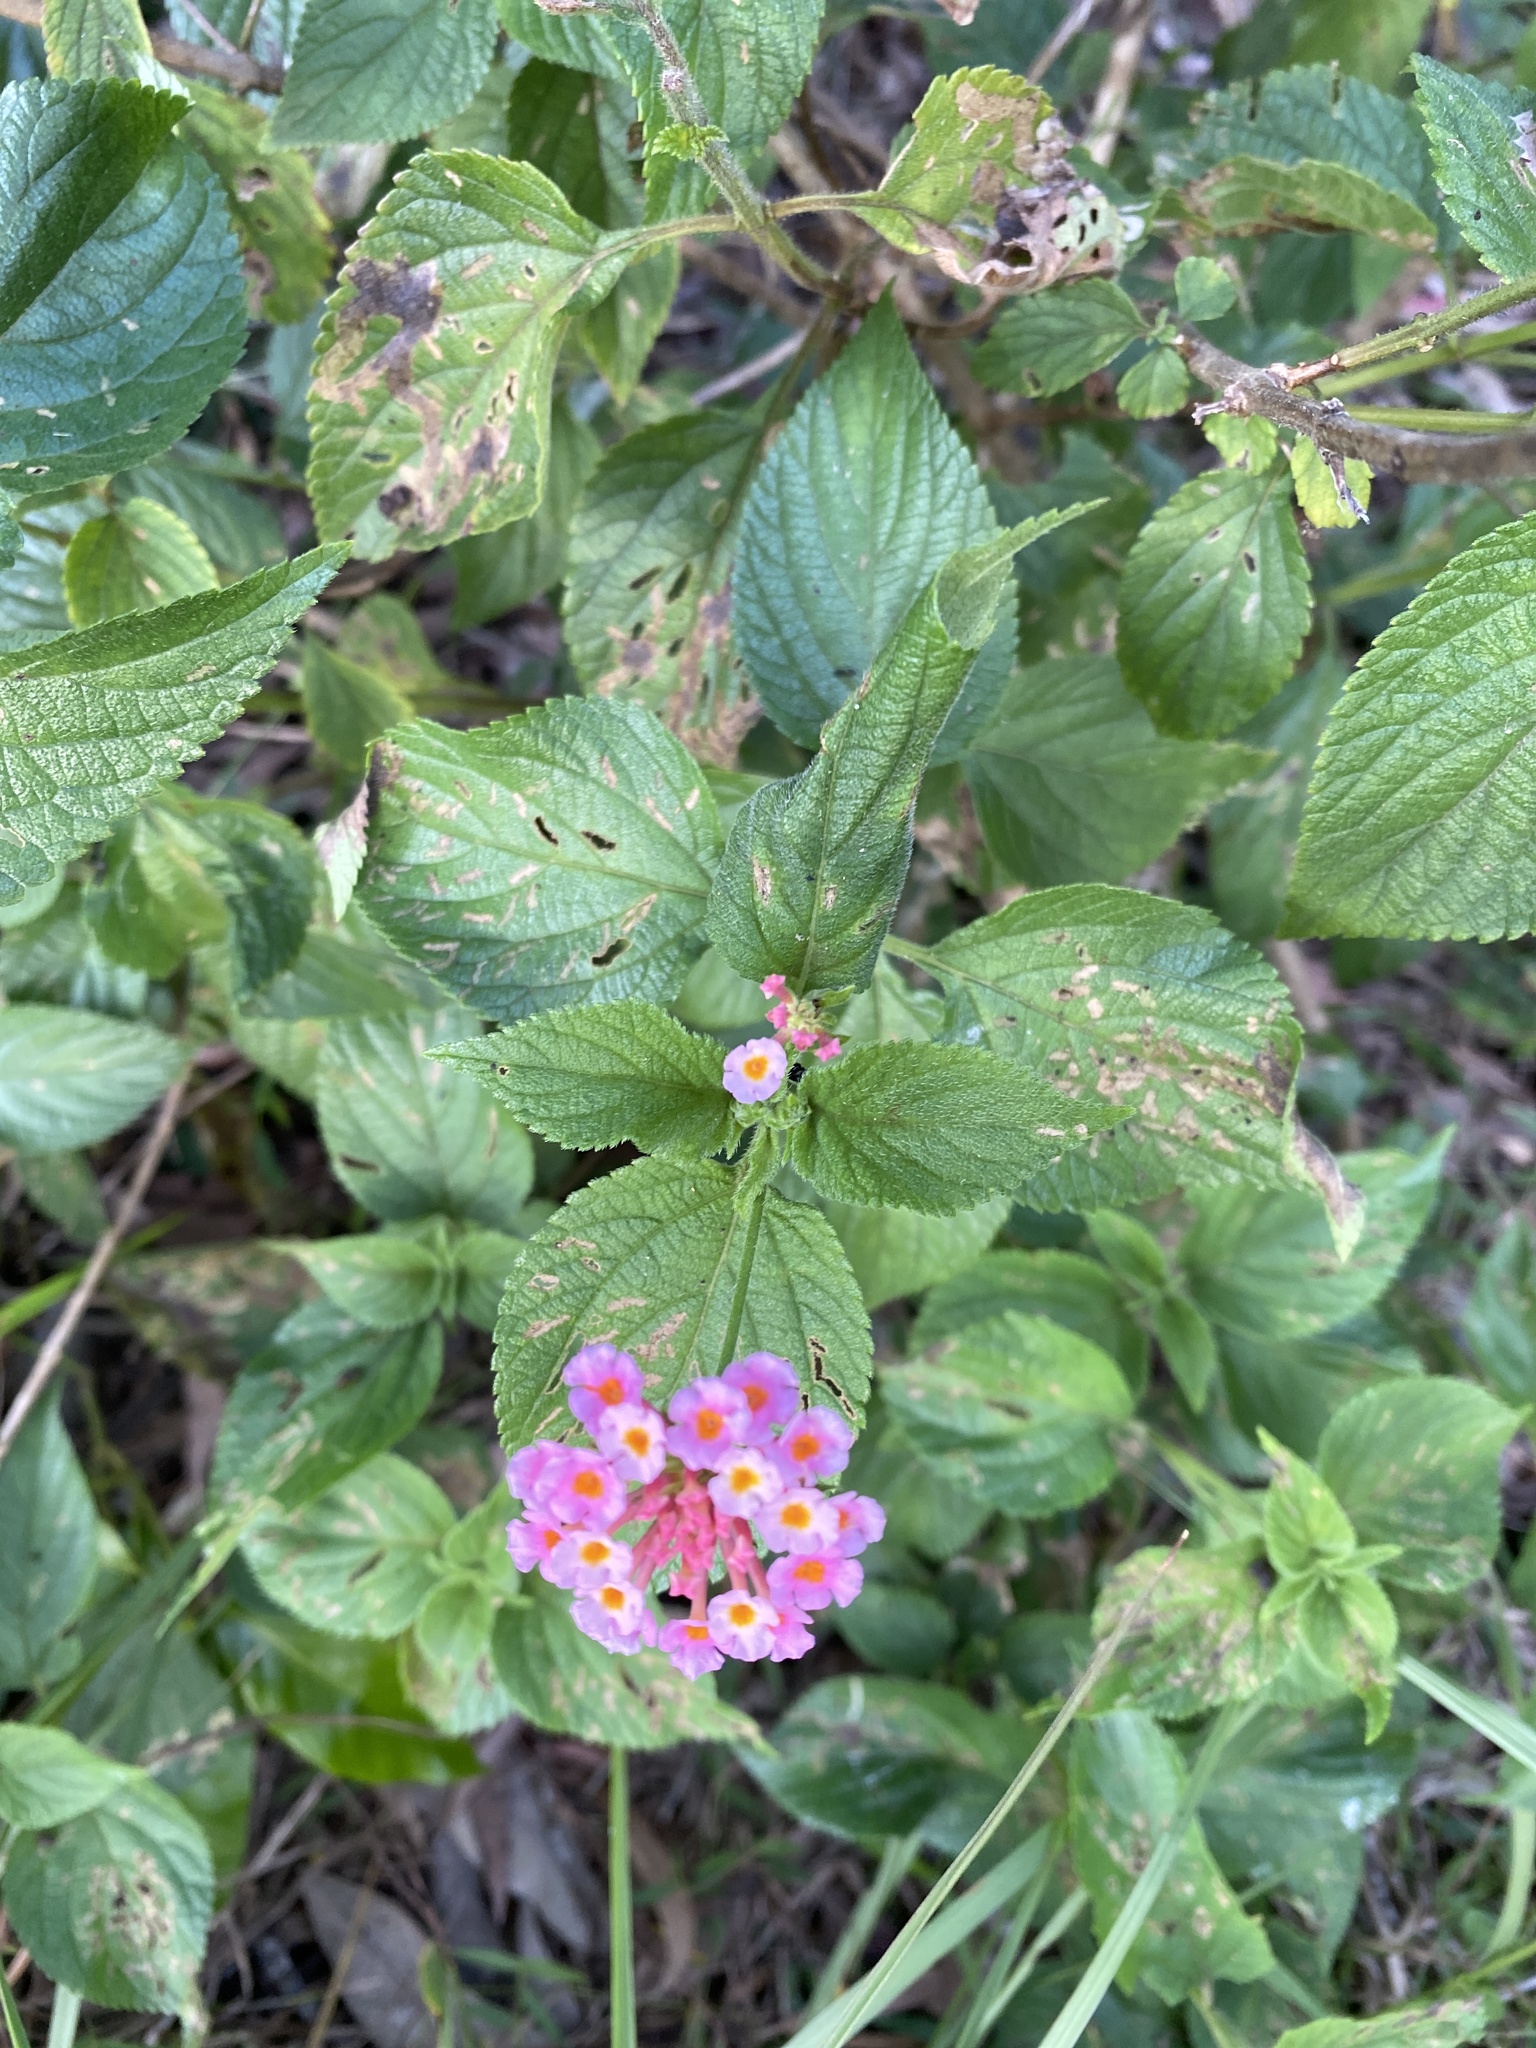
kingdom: Plantae
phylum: Tracheophyta
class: Magnoliopsida
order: Lamiales
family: Verbenaceae
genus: Lantana
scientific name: Lantana camara
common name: Lantana
